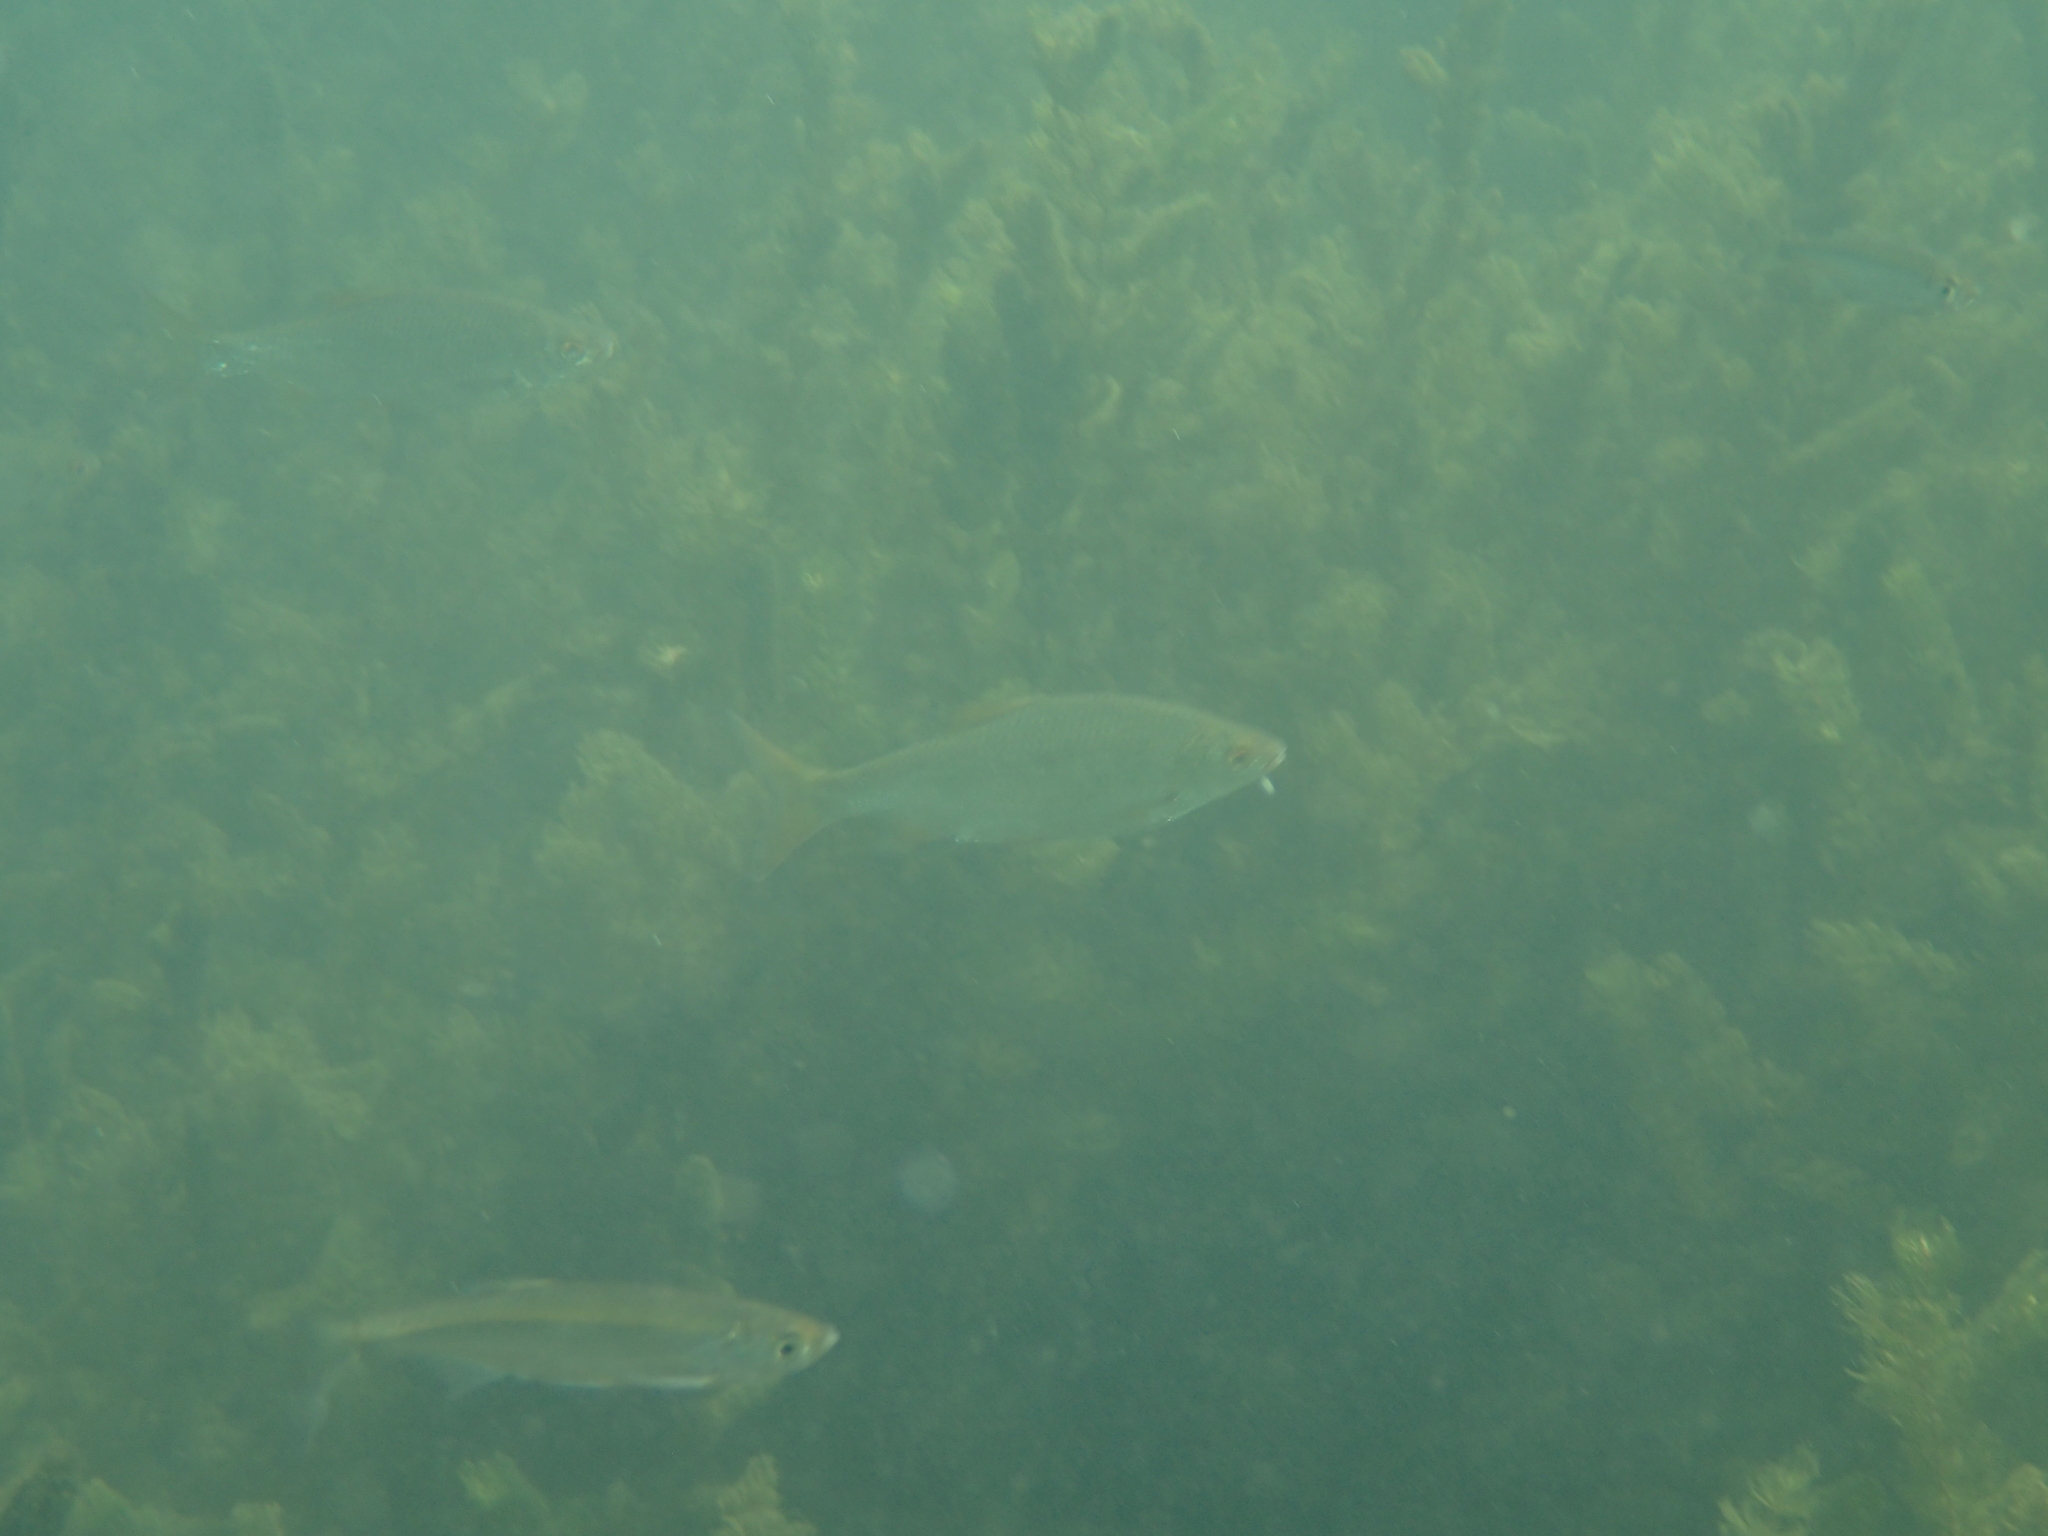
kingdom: Animalia
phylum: Chordata
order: Cypriniformes
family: Cyprinidae
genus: Rutilus
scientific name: Rutilus rutilus
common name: Roach
